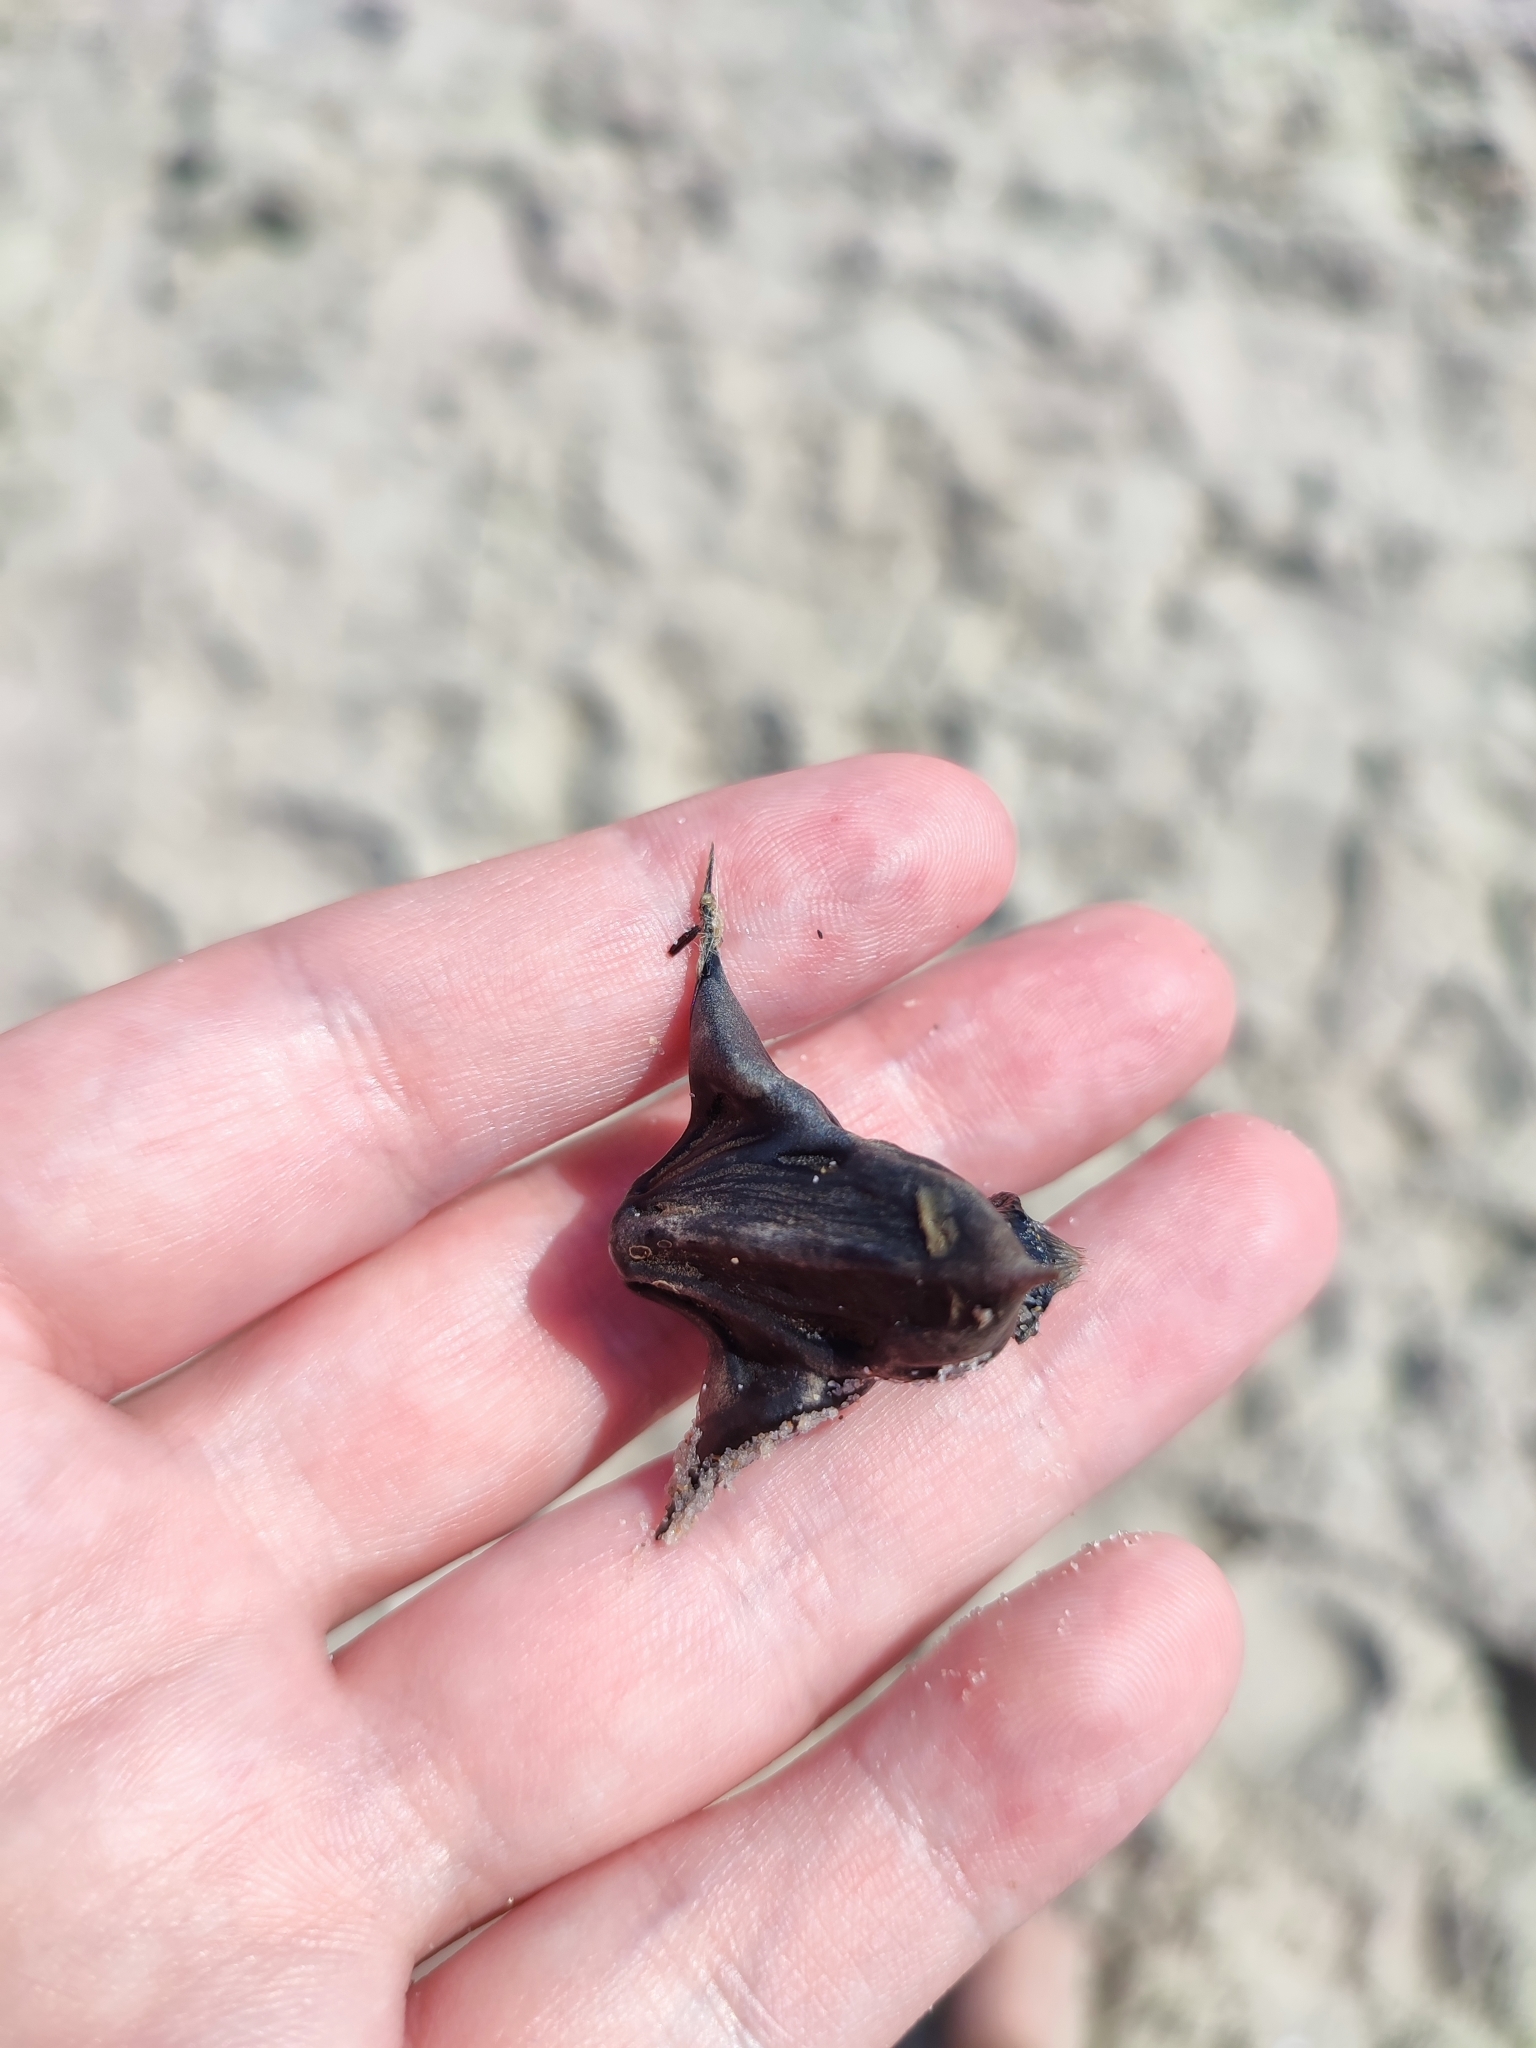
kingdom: Plantae
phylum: Tracheophyta
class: Magnoliopsida
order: Myrtales
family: Lythraceae
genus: Trapa
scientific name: Trapa natans
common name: Water chestnut
